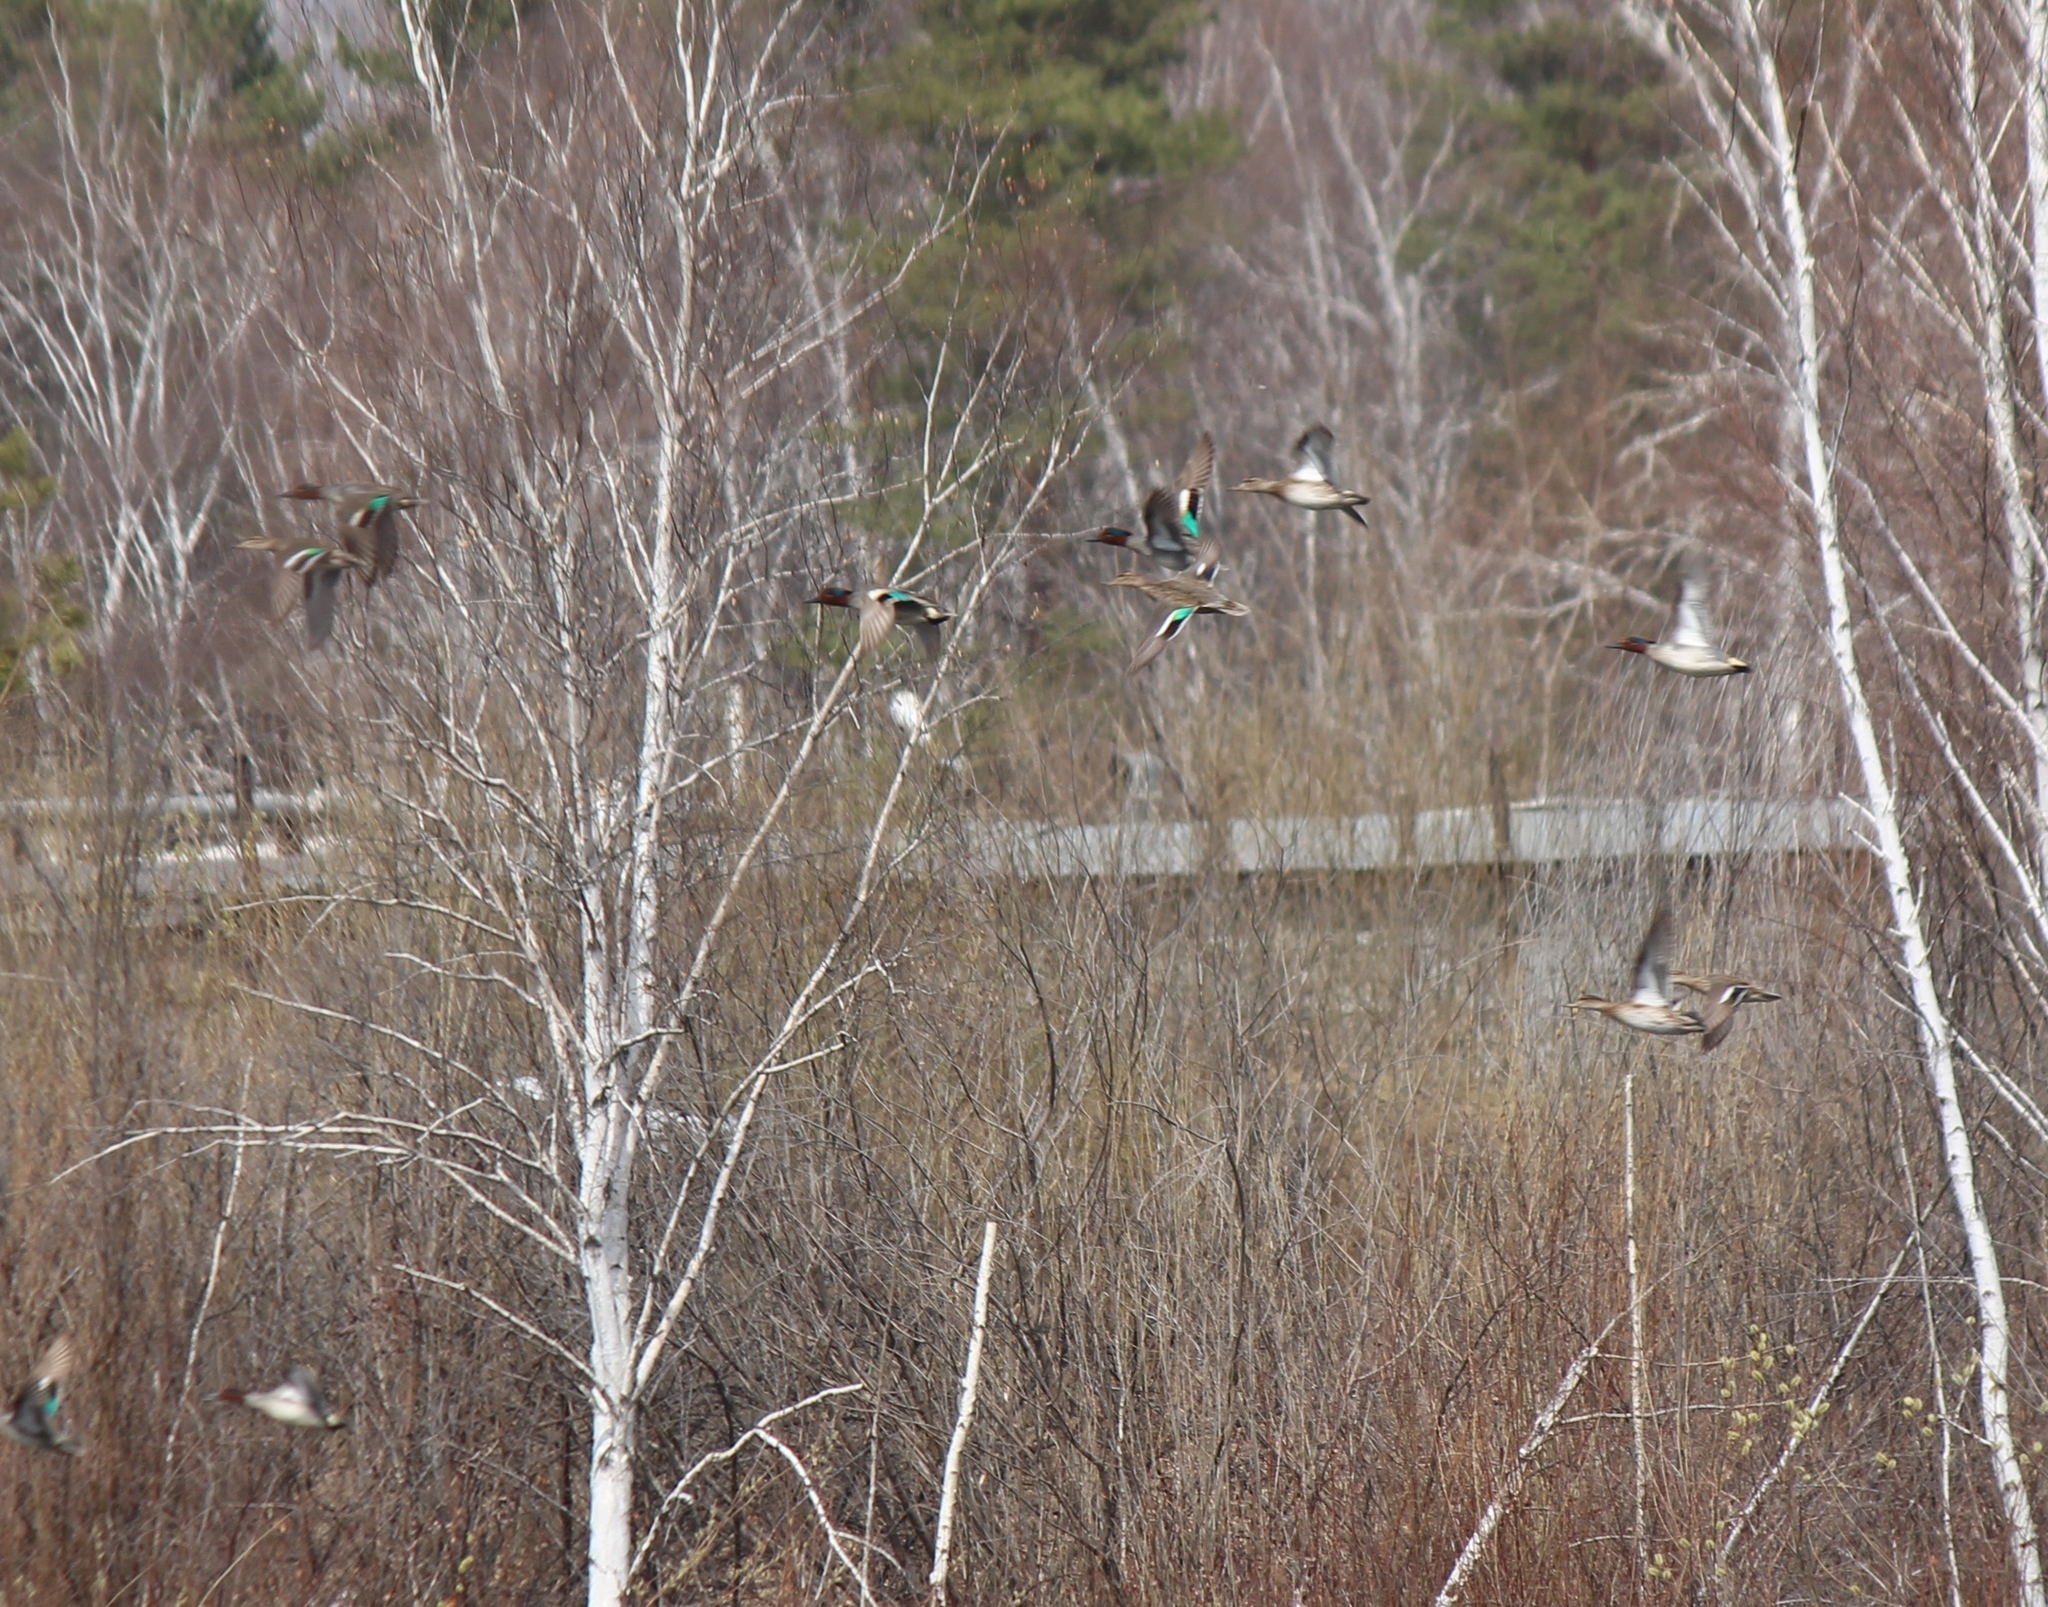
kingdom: Animalia
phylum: Chordata
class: Aves
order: Anseriformes
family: Anatidae
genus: Anas
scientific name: Anas crecca
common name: Eurasian teal
